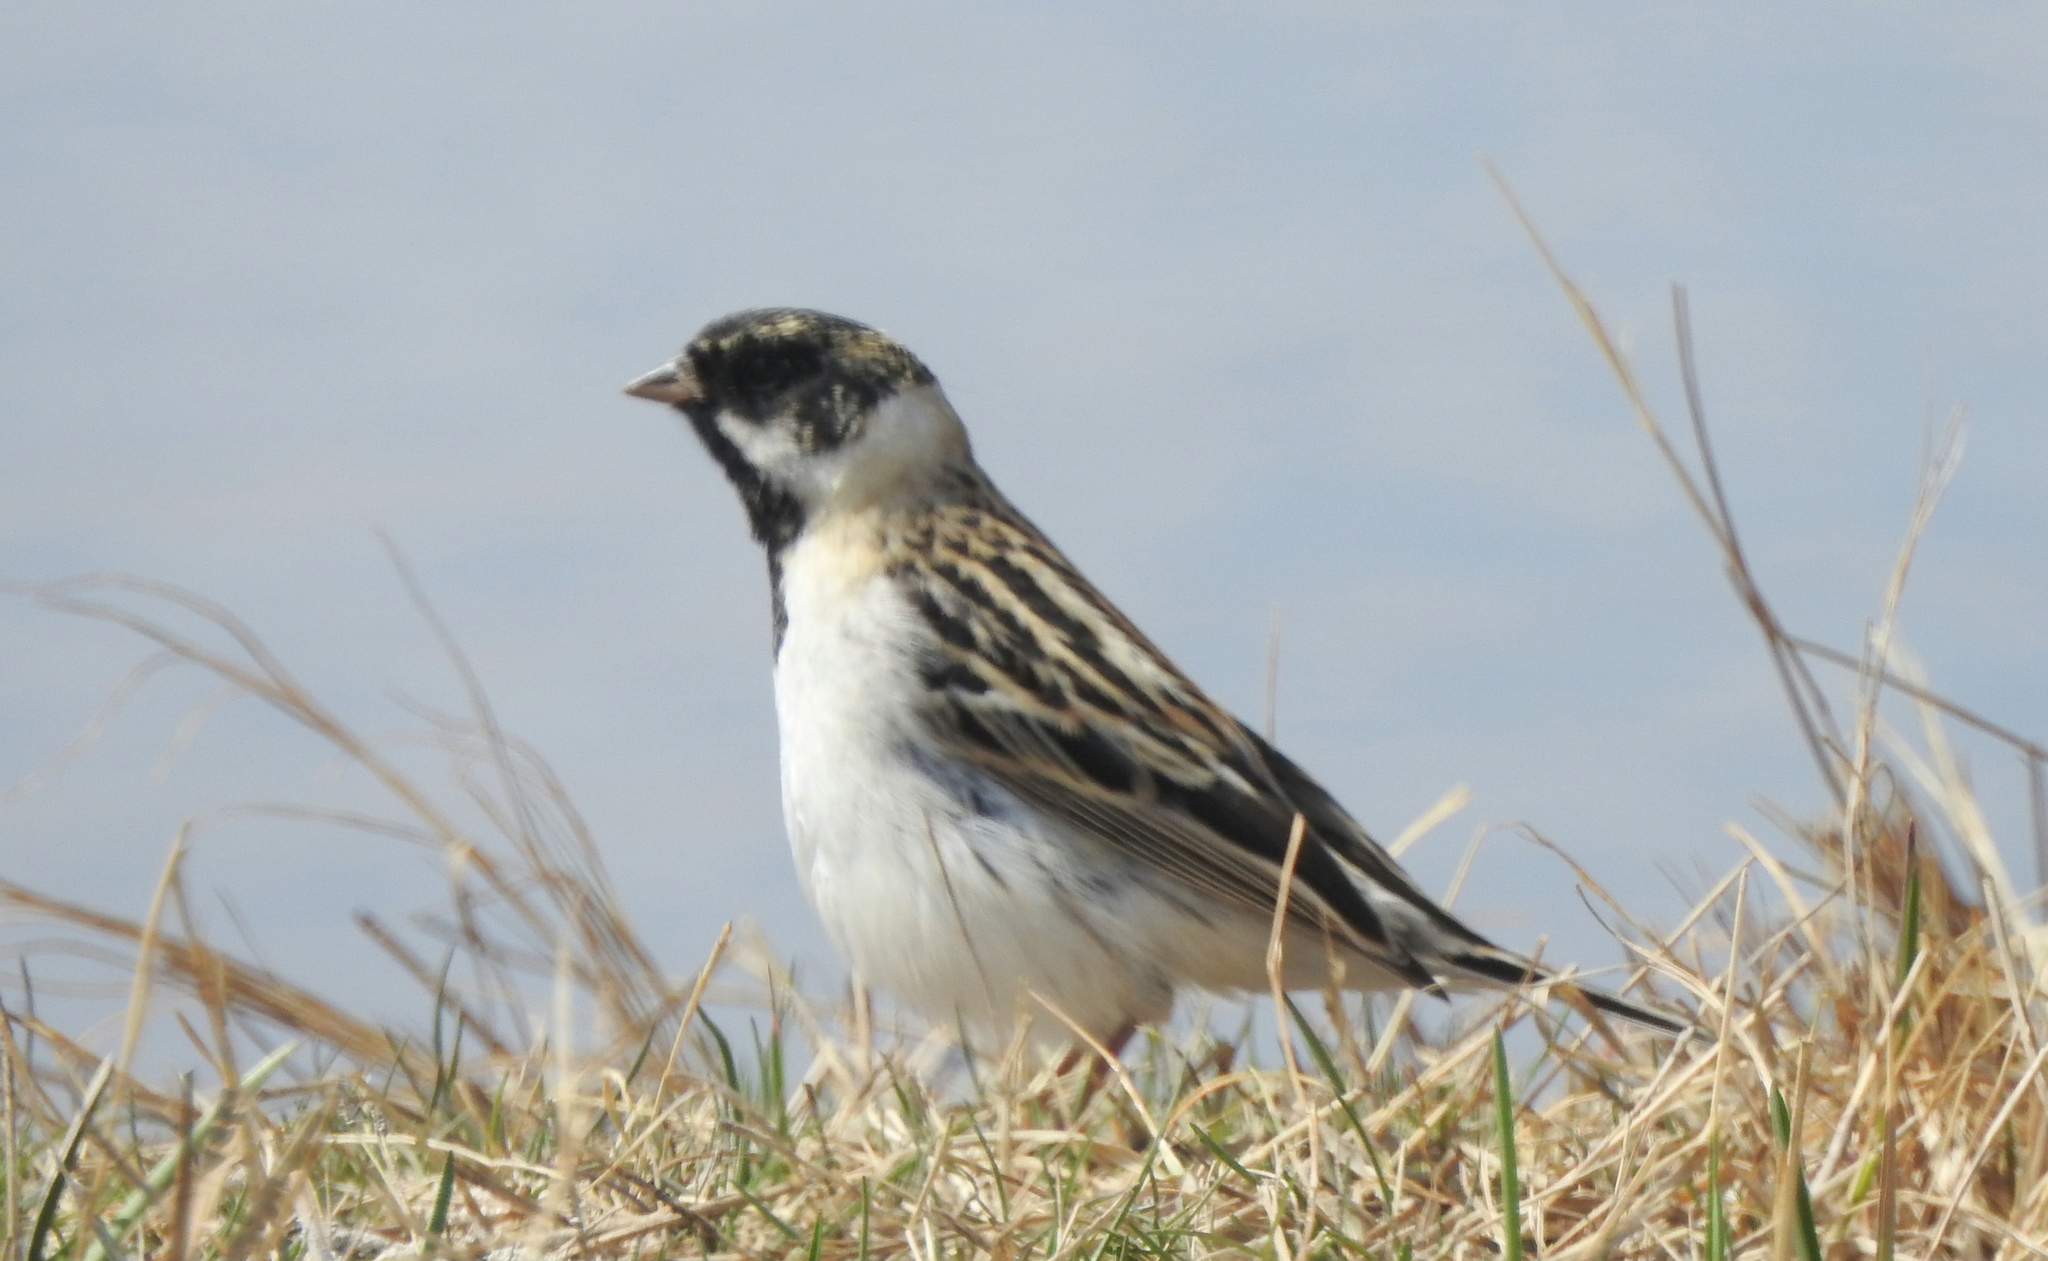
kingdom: Animalia
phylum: Chordata
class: Aves
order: Passeriformes
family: Emberizidae
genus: Emberiza
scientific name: Emberiza pallasi
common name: Pallas's reed bunting
